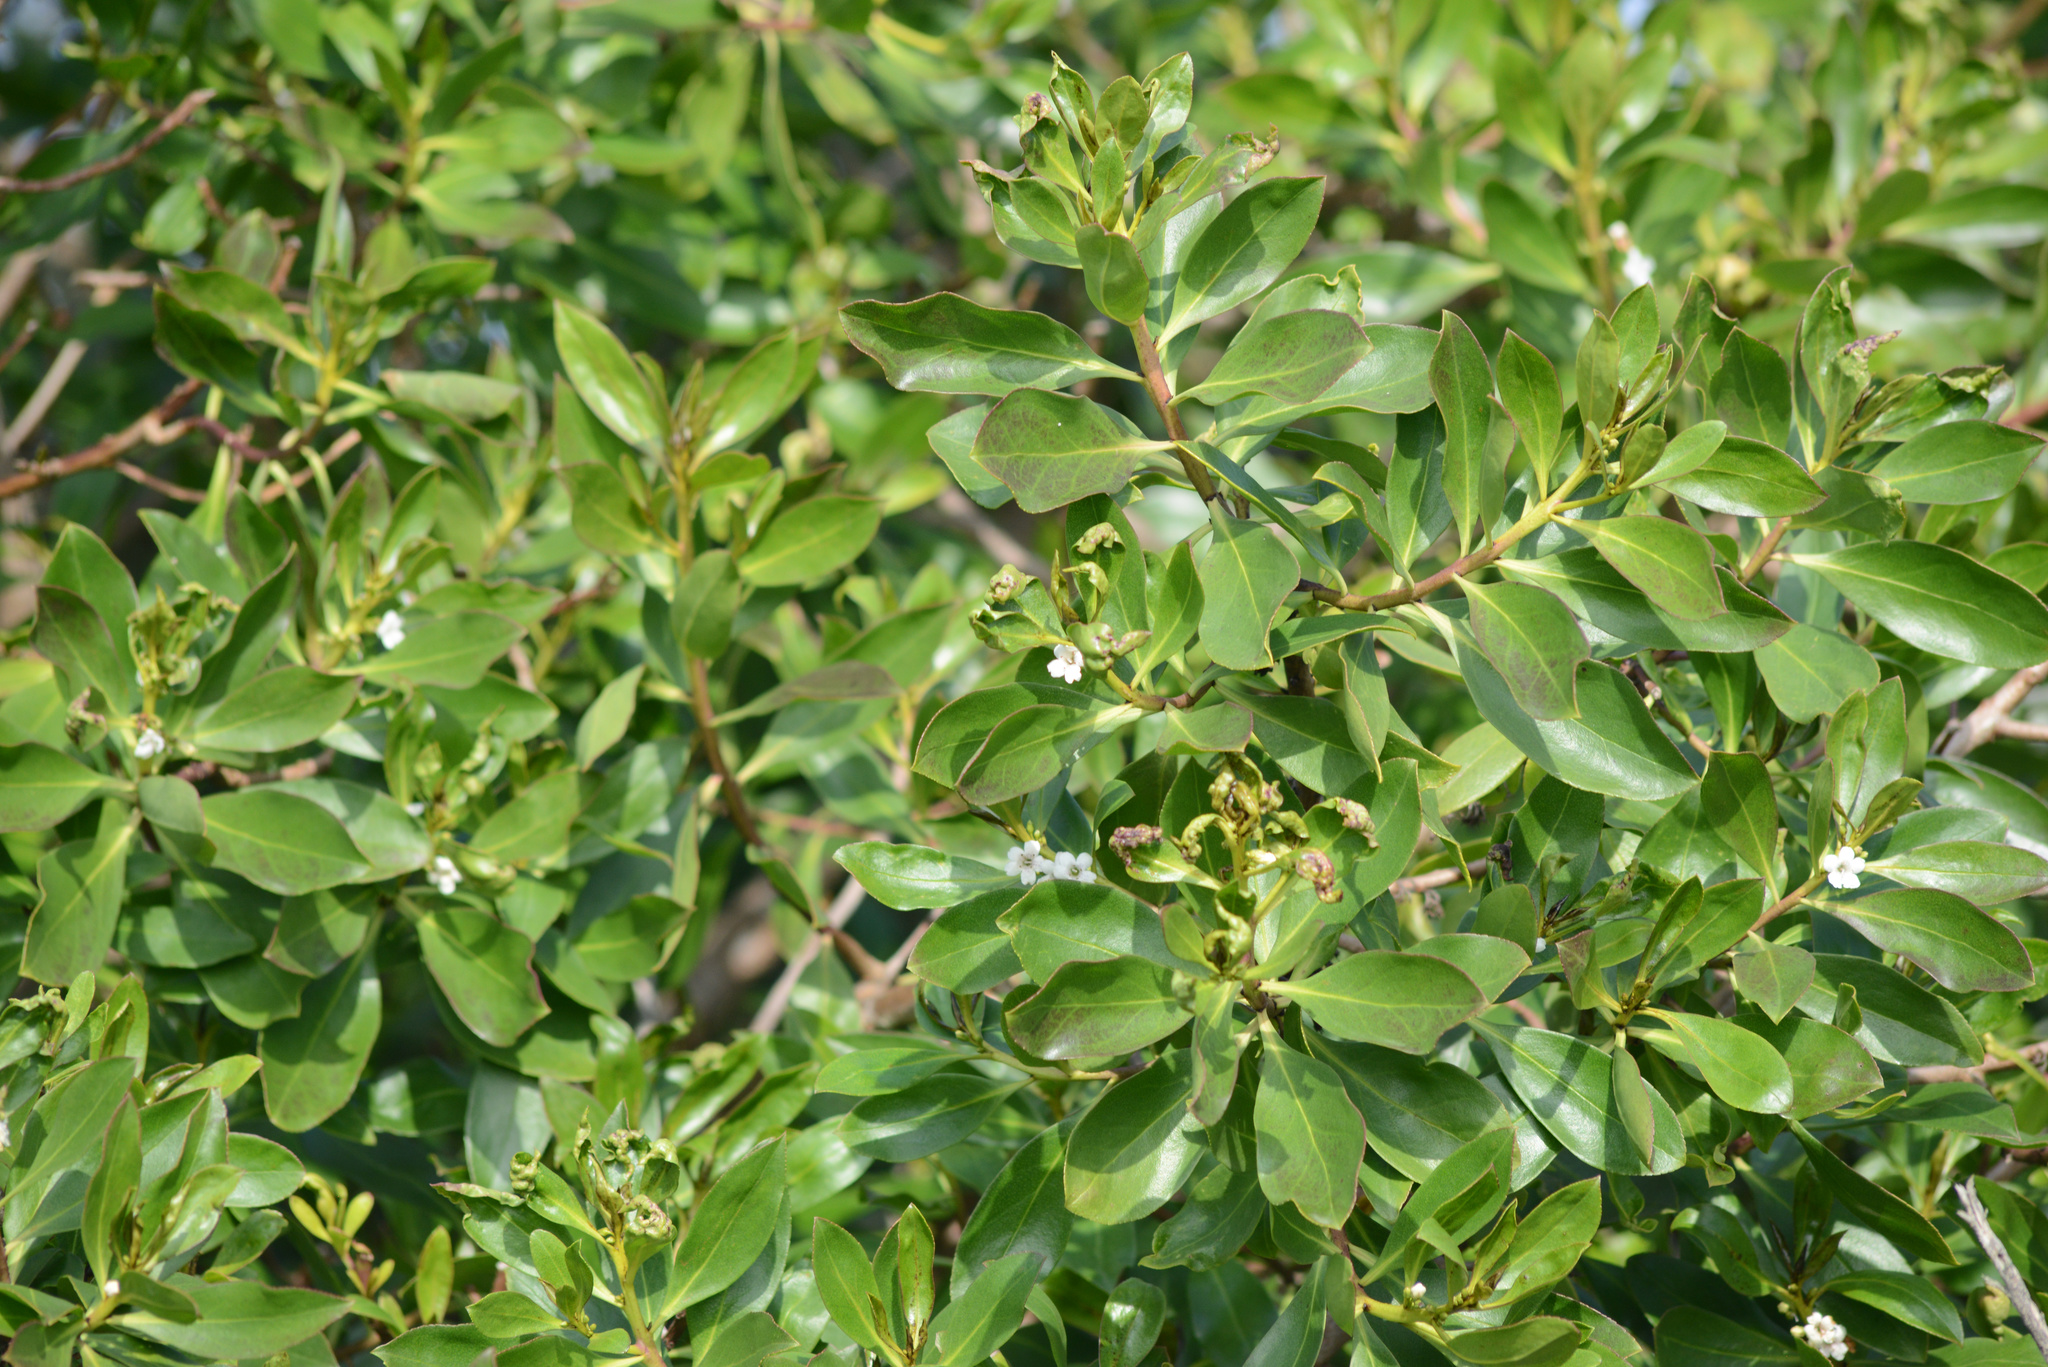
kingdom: Plantae
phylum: Tracheophyta
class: Magnoliopsida
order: Lamiales
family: Scrophulariaceae
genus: Myoporum
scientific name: Myoporum laetum
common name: Ngaio tree
